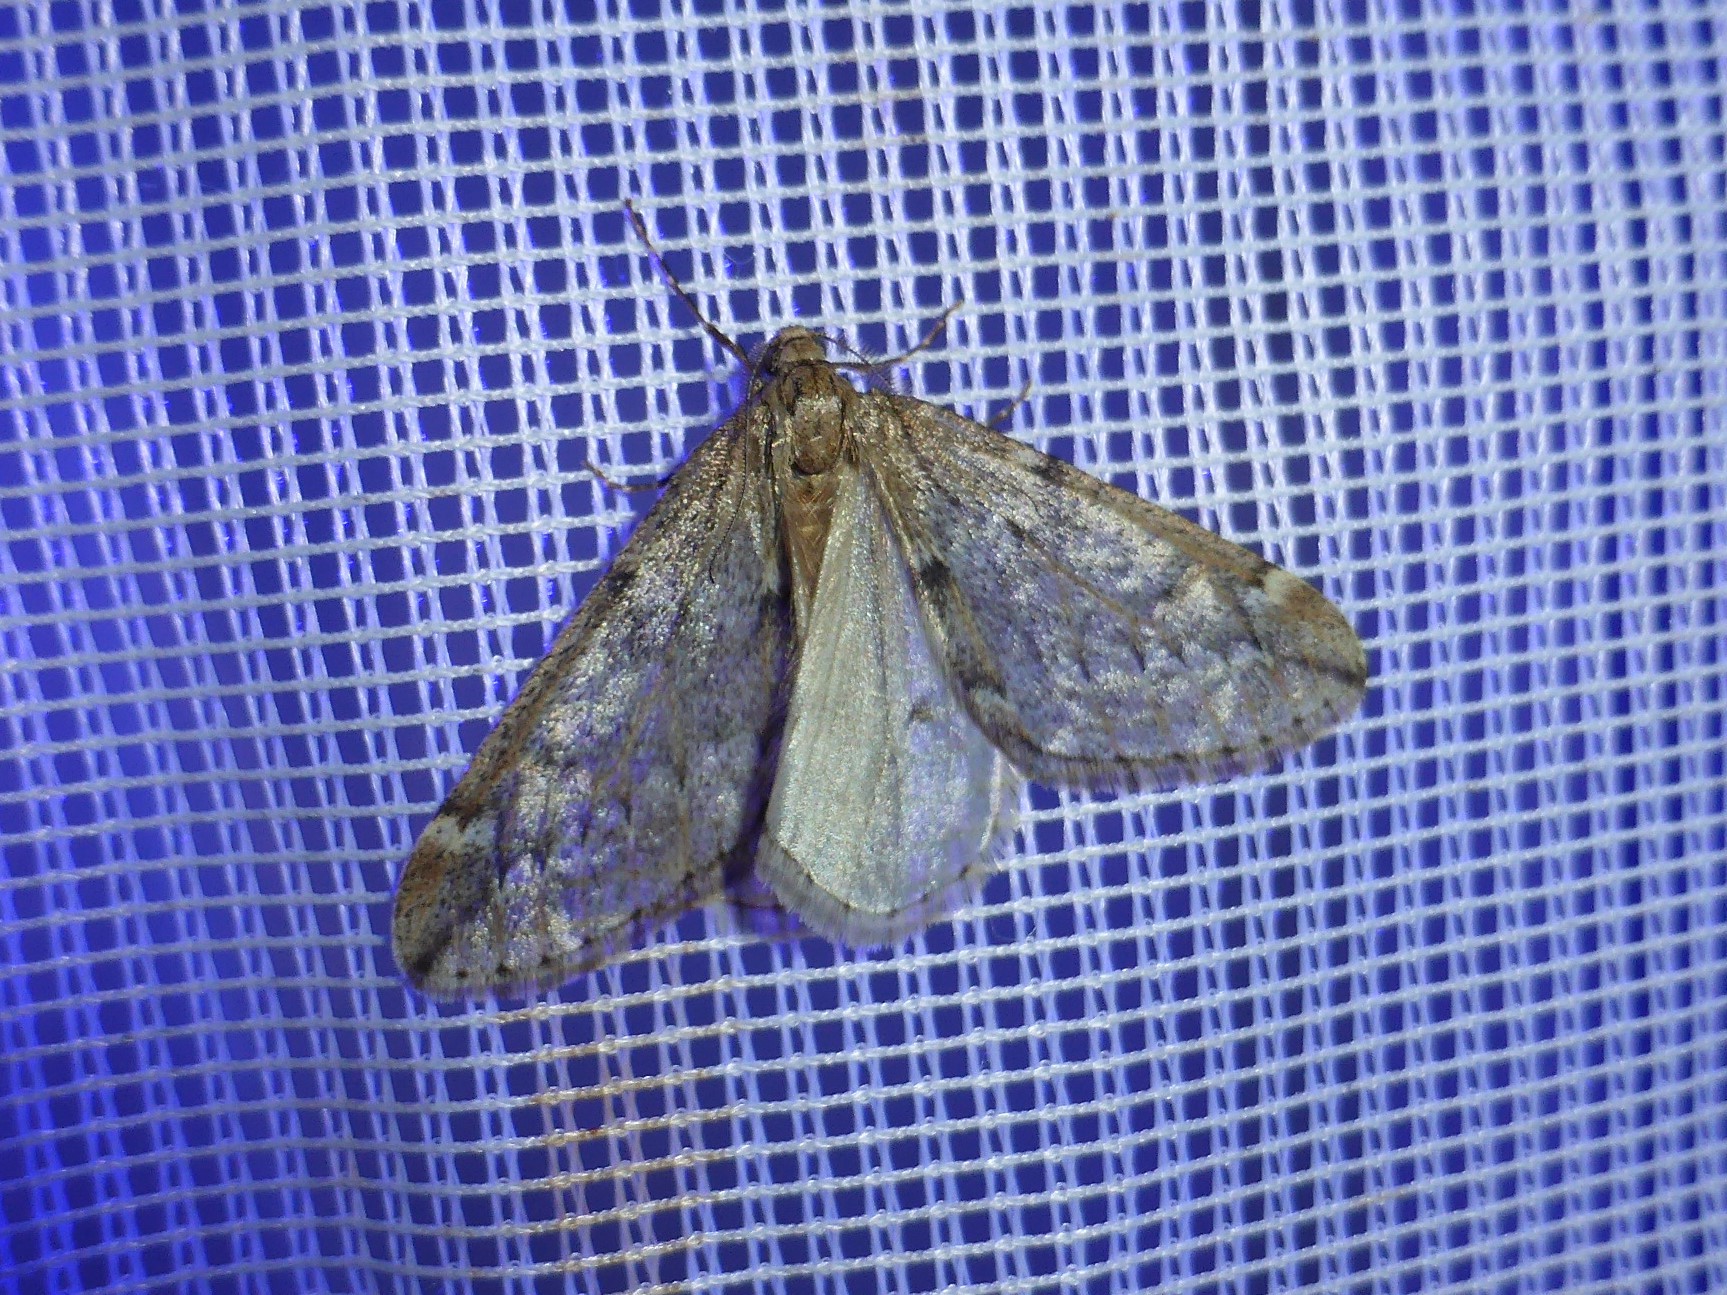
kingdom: Animalia
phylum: Arthropoda
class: Insecta
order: Lepidoptera
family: Geometridae
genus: Alsophila
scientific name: Alsophila aescularia
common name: March moth
